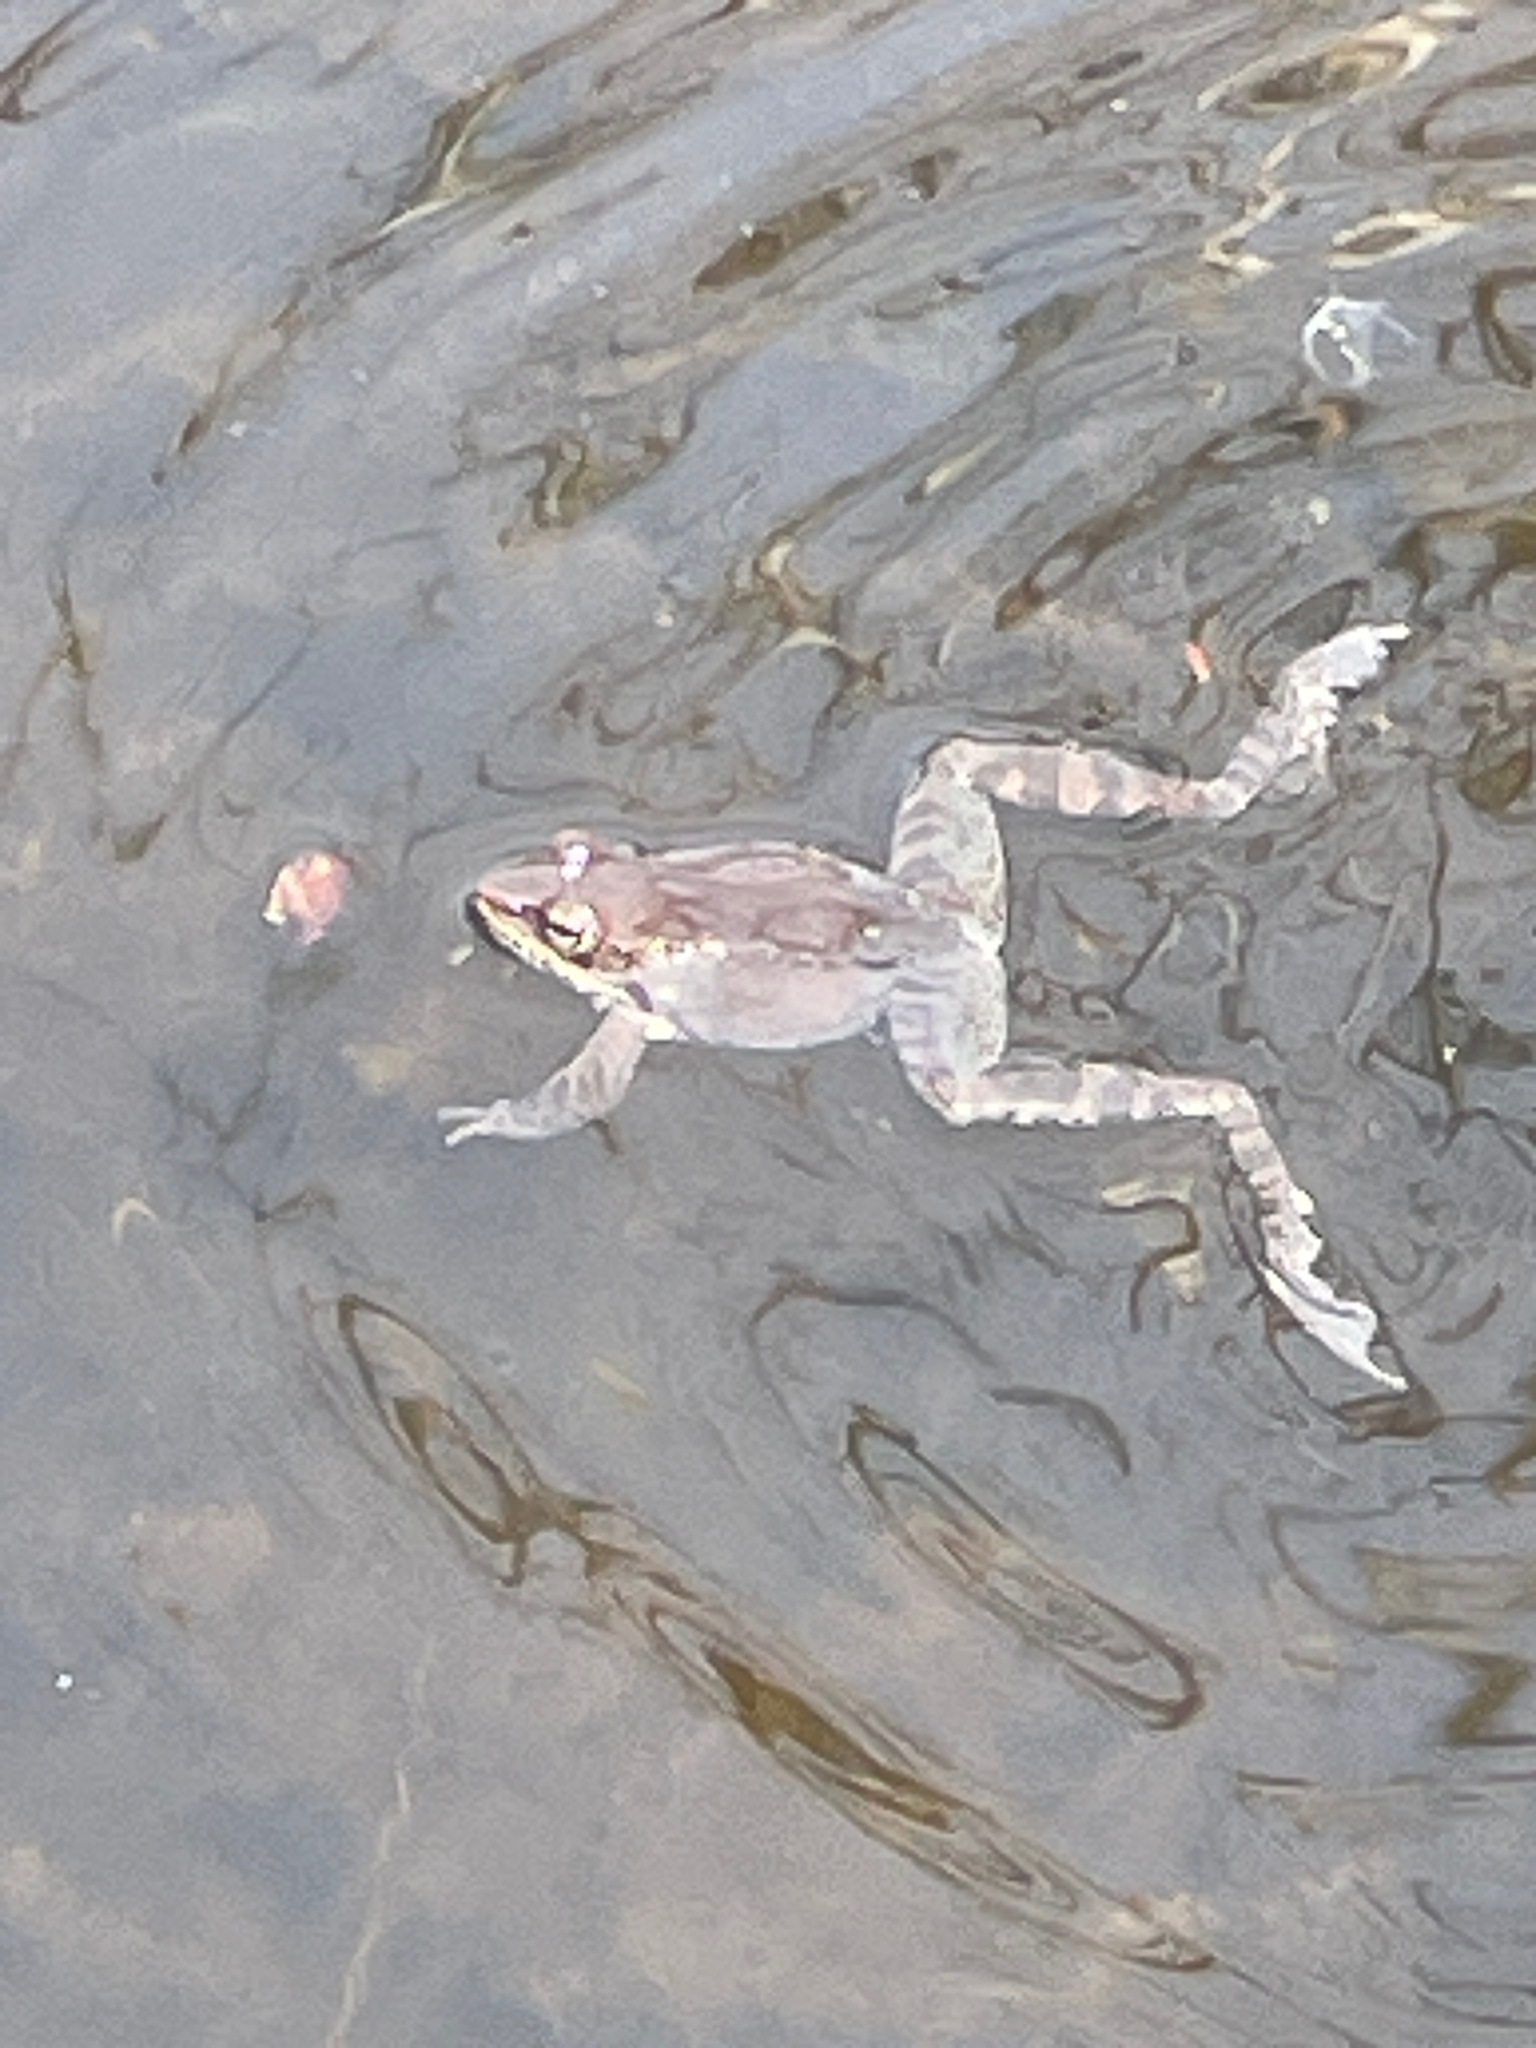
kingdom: Animalia
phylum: Chordata
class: Amphibia
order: Anura
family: Ranidae
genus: Lithobates
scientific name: Lithobates sylvaticus
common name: Wood frog
